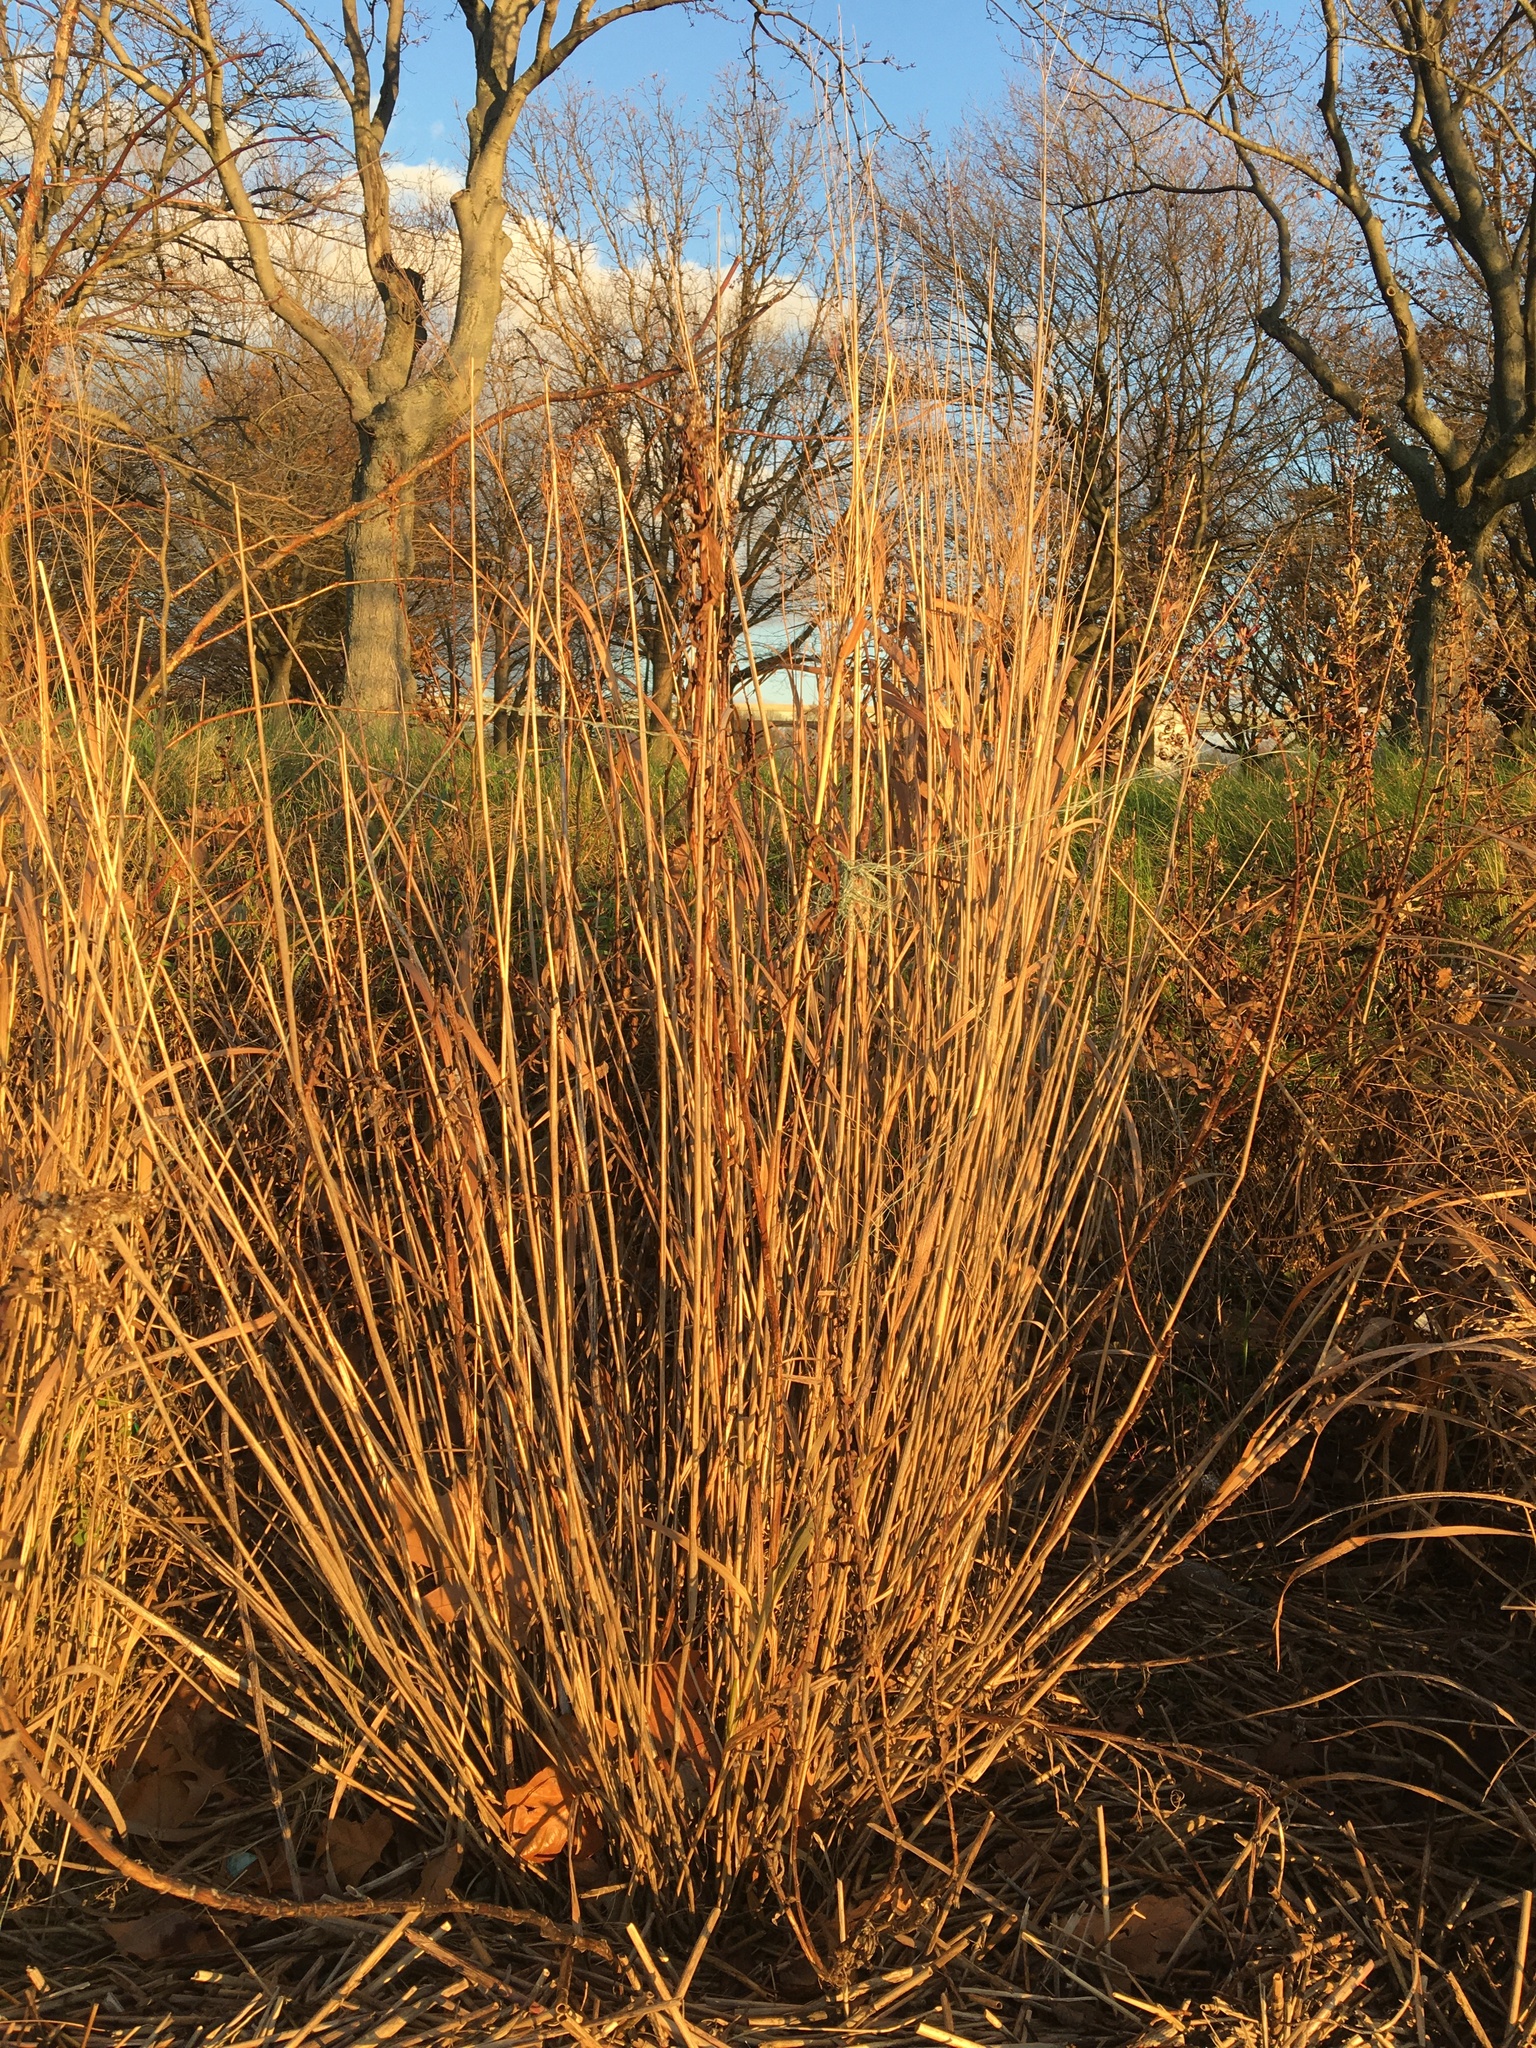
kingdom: Plantae
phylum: Tracheophyta
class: Liliopsida
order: Poales
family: Poaceae
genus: Panicum
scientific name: Panicum virgatum
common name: Switchgrass
